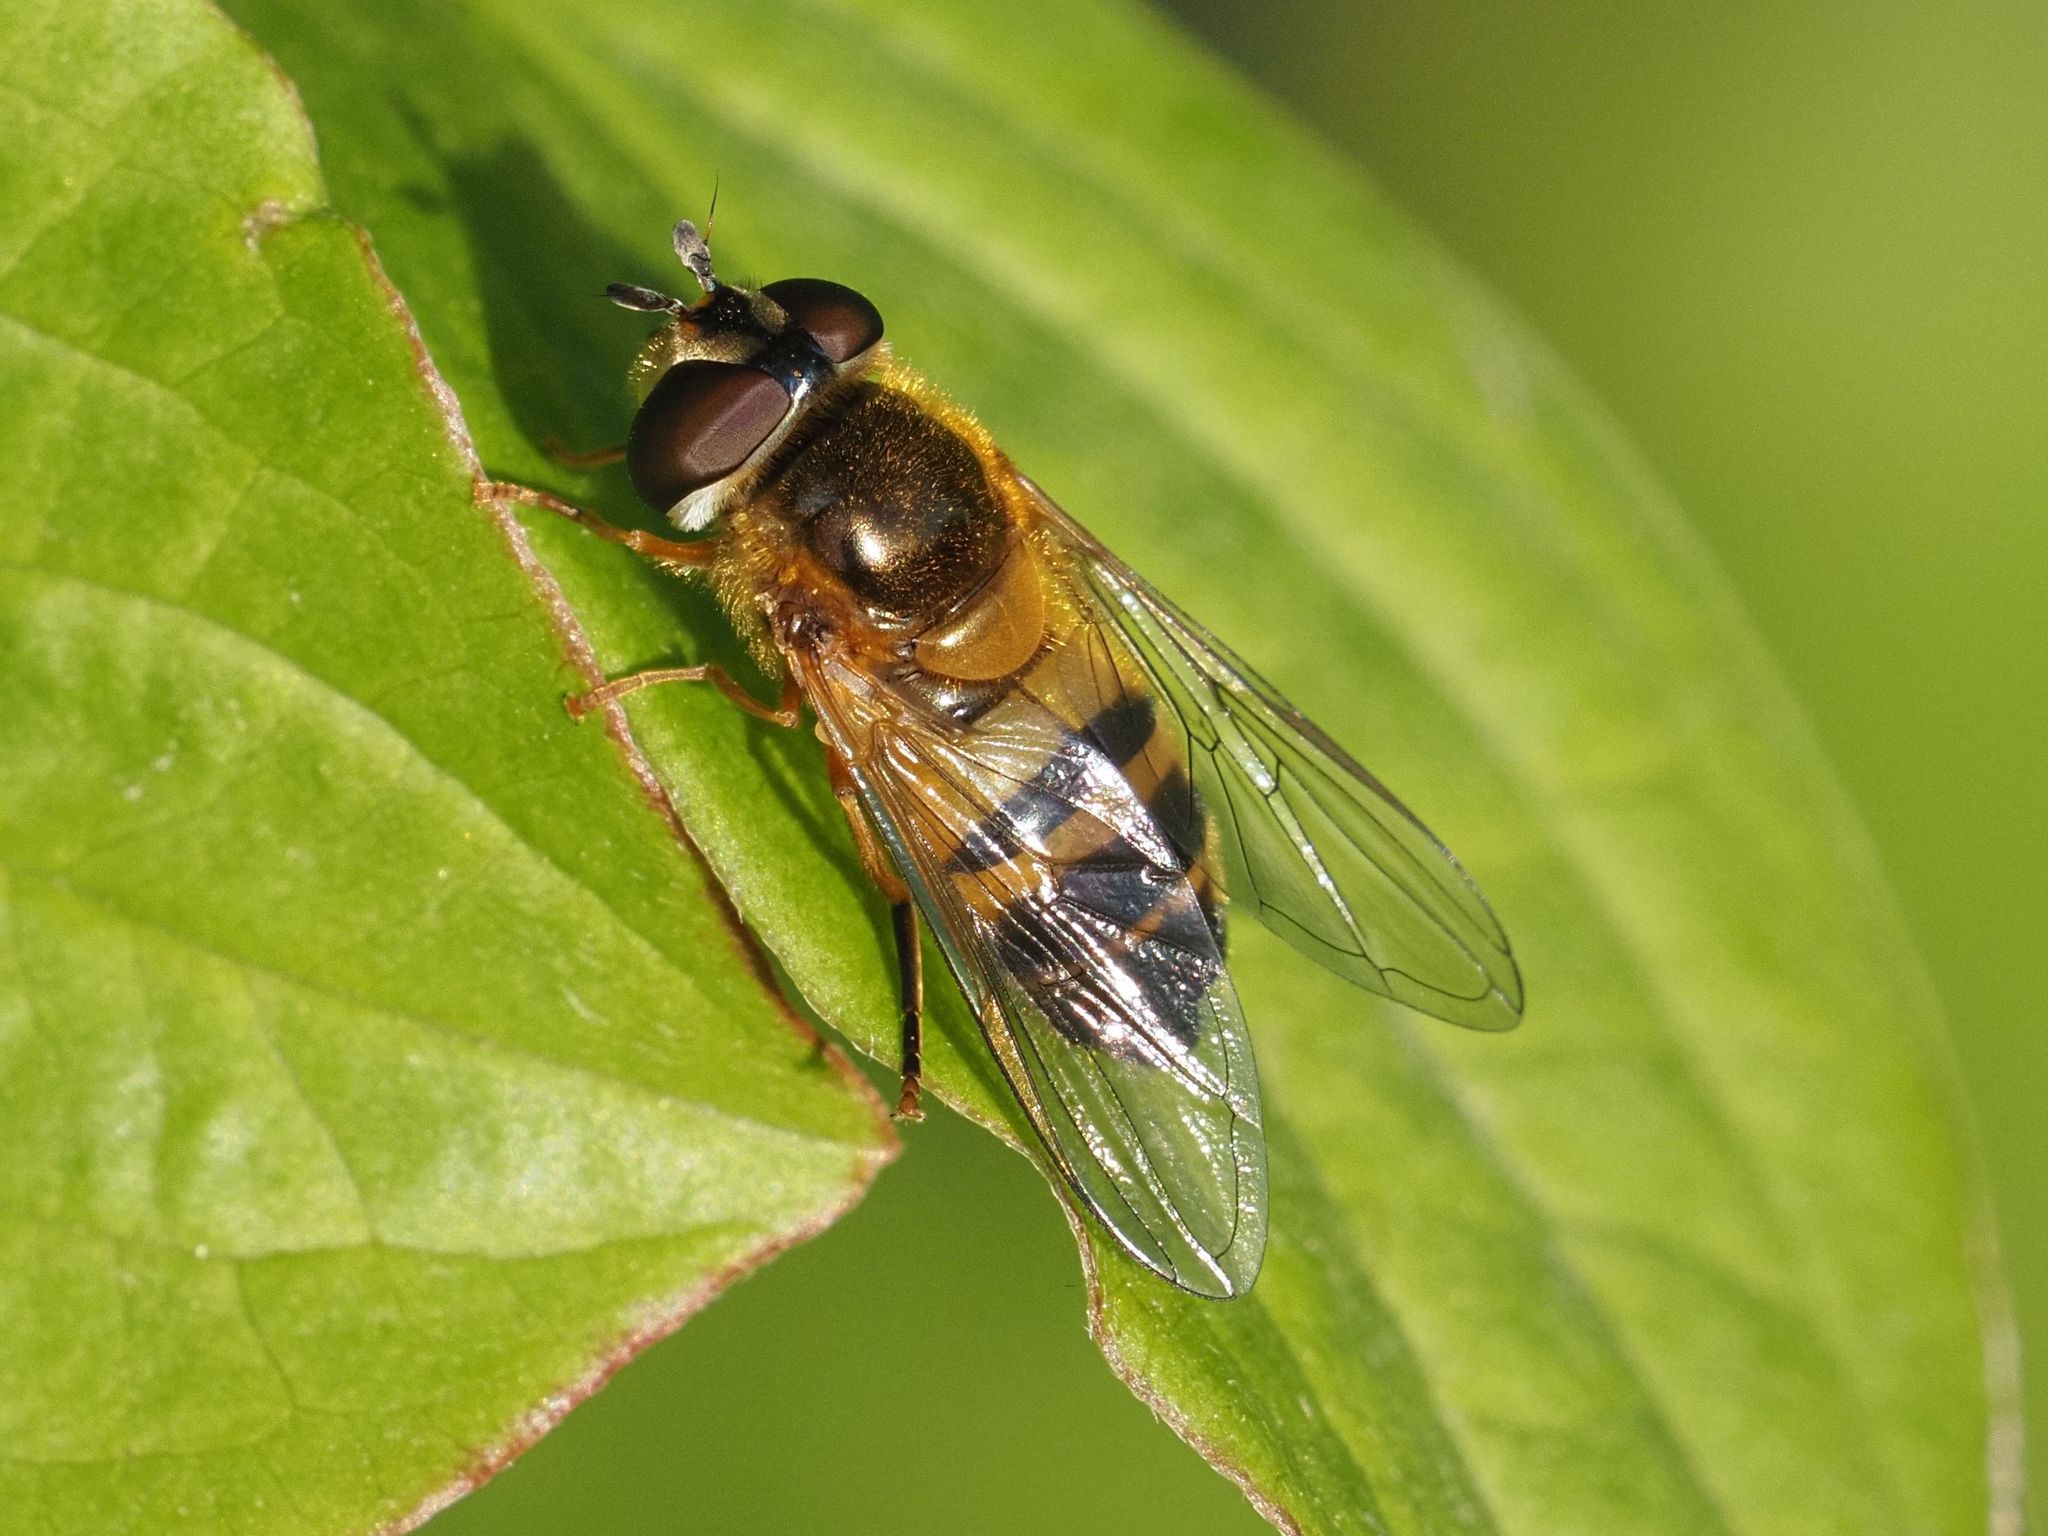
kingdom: Animalia
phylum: Arthropoda
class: Insecta
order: Diptera
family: Syrphidae
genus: Epistrophe
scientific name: Epistrophe eligans
